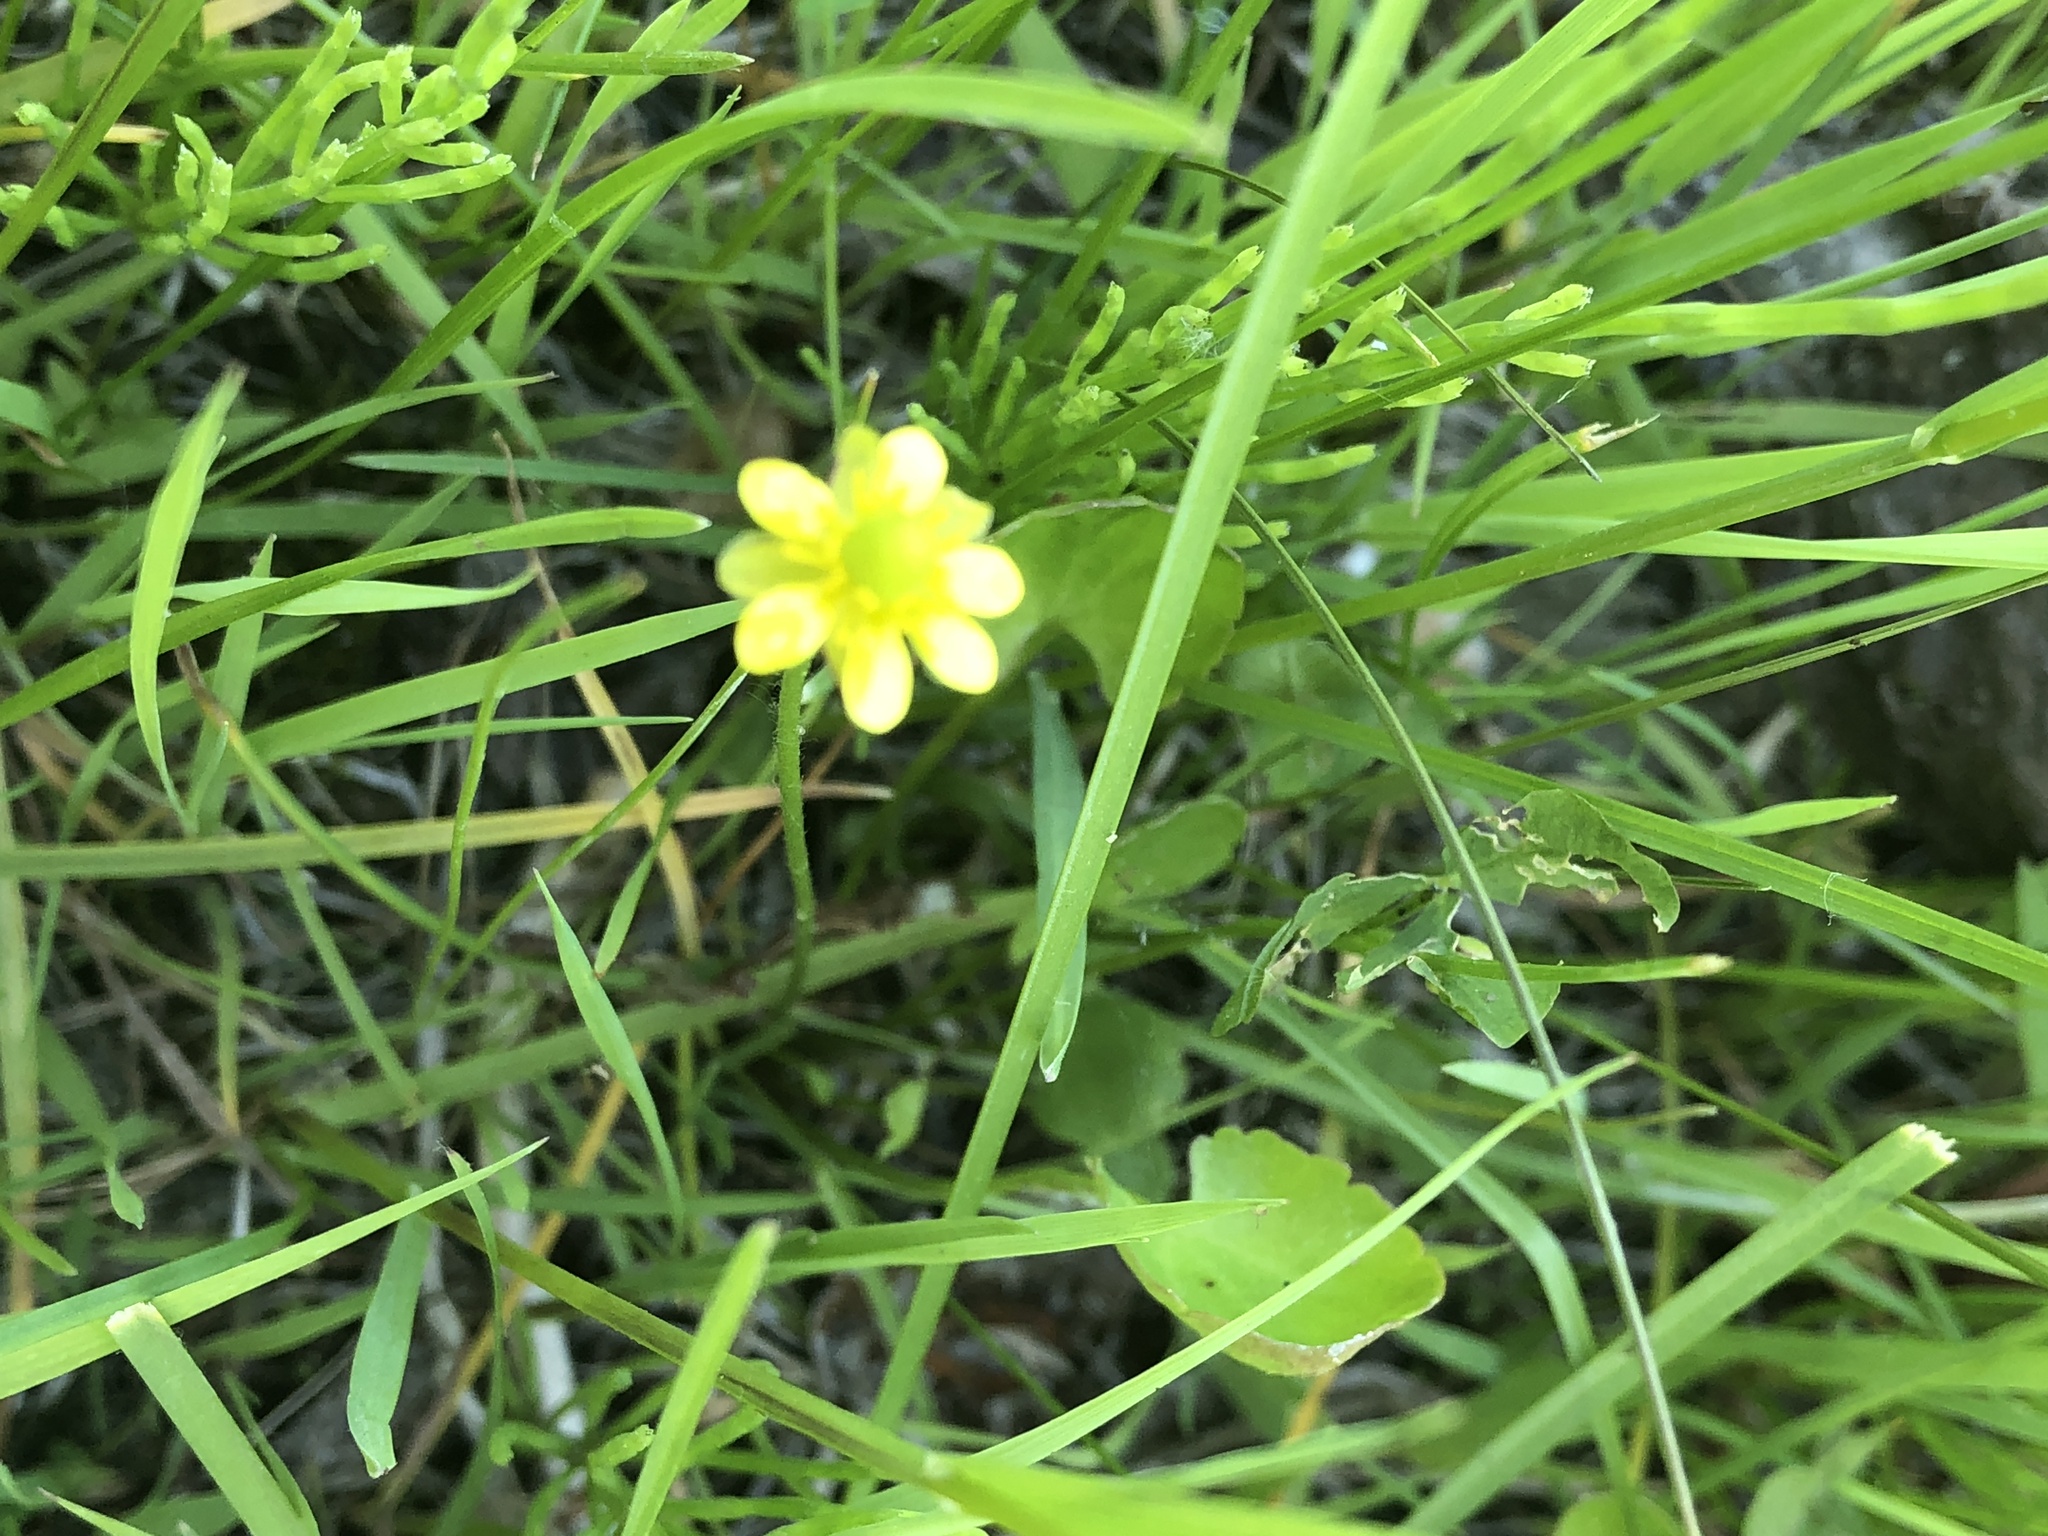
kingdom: Plantae
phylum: Tracheophyta
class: Magnoliopsida
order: Ranunculales
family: Ranunculaceae
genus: Halerpestes
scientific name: Halerpestes cymbalaria
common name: Seaside crowfoot
